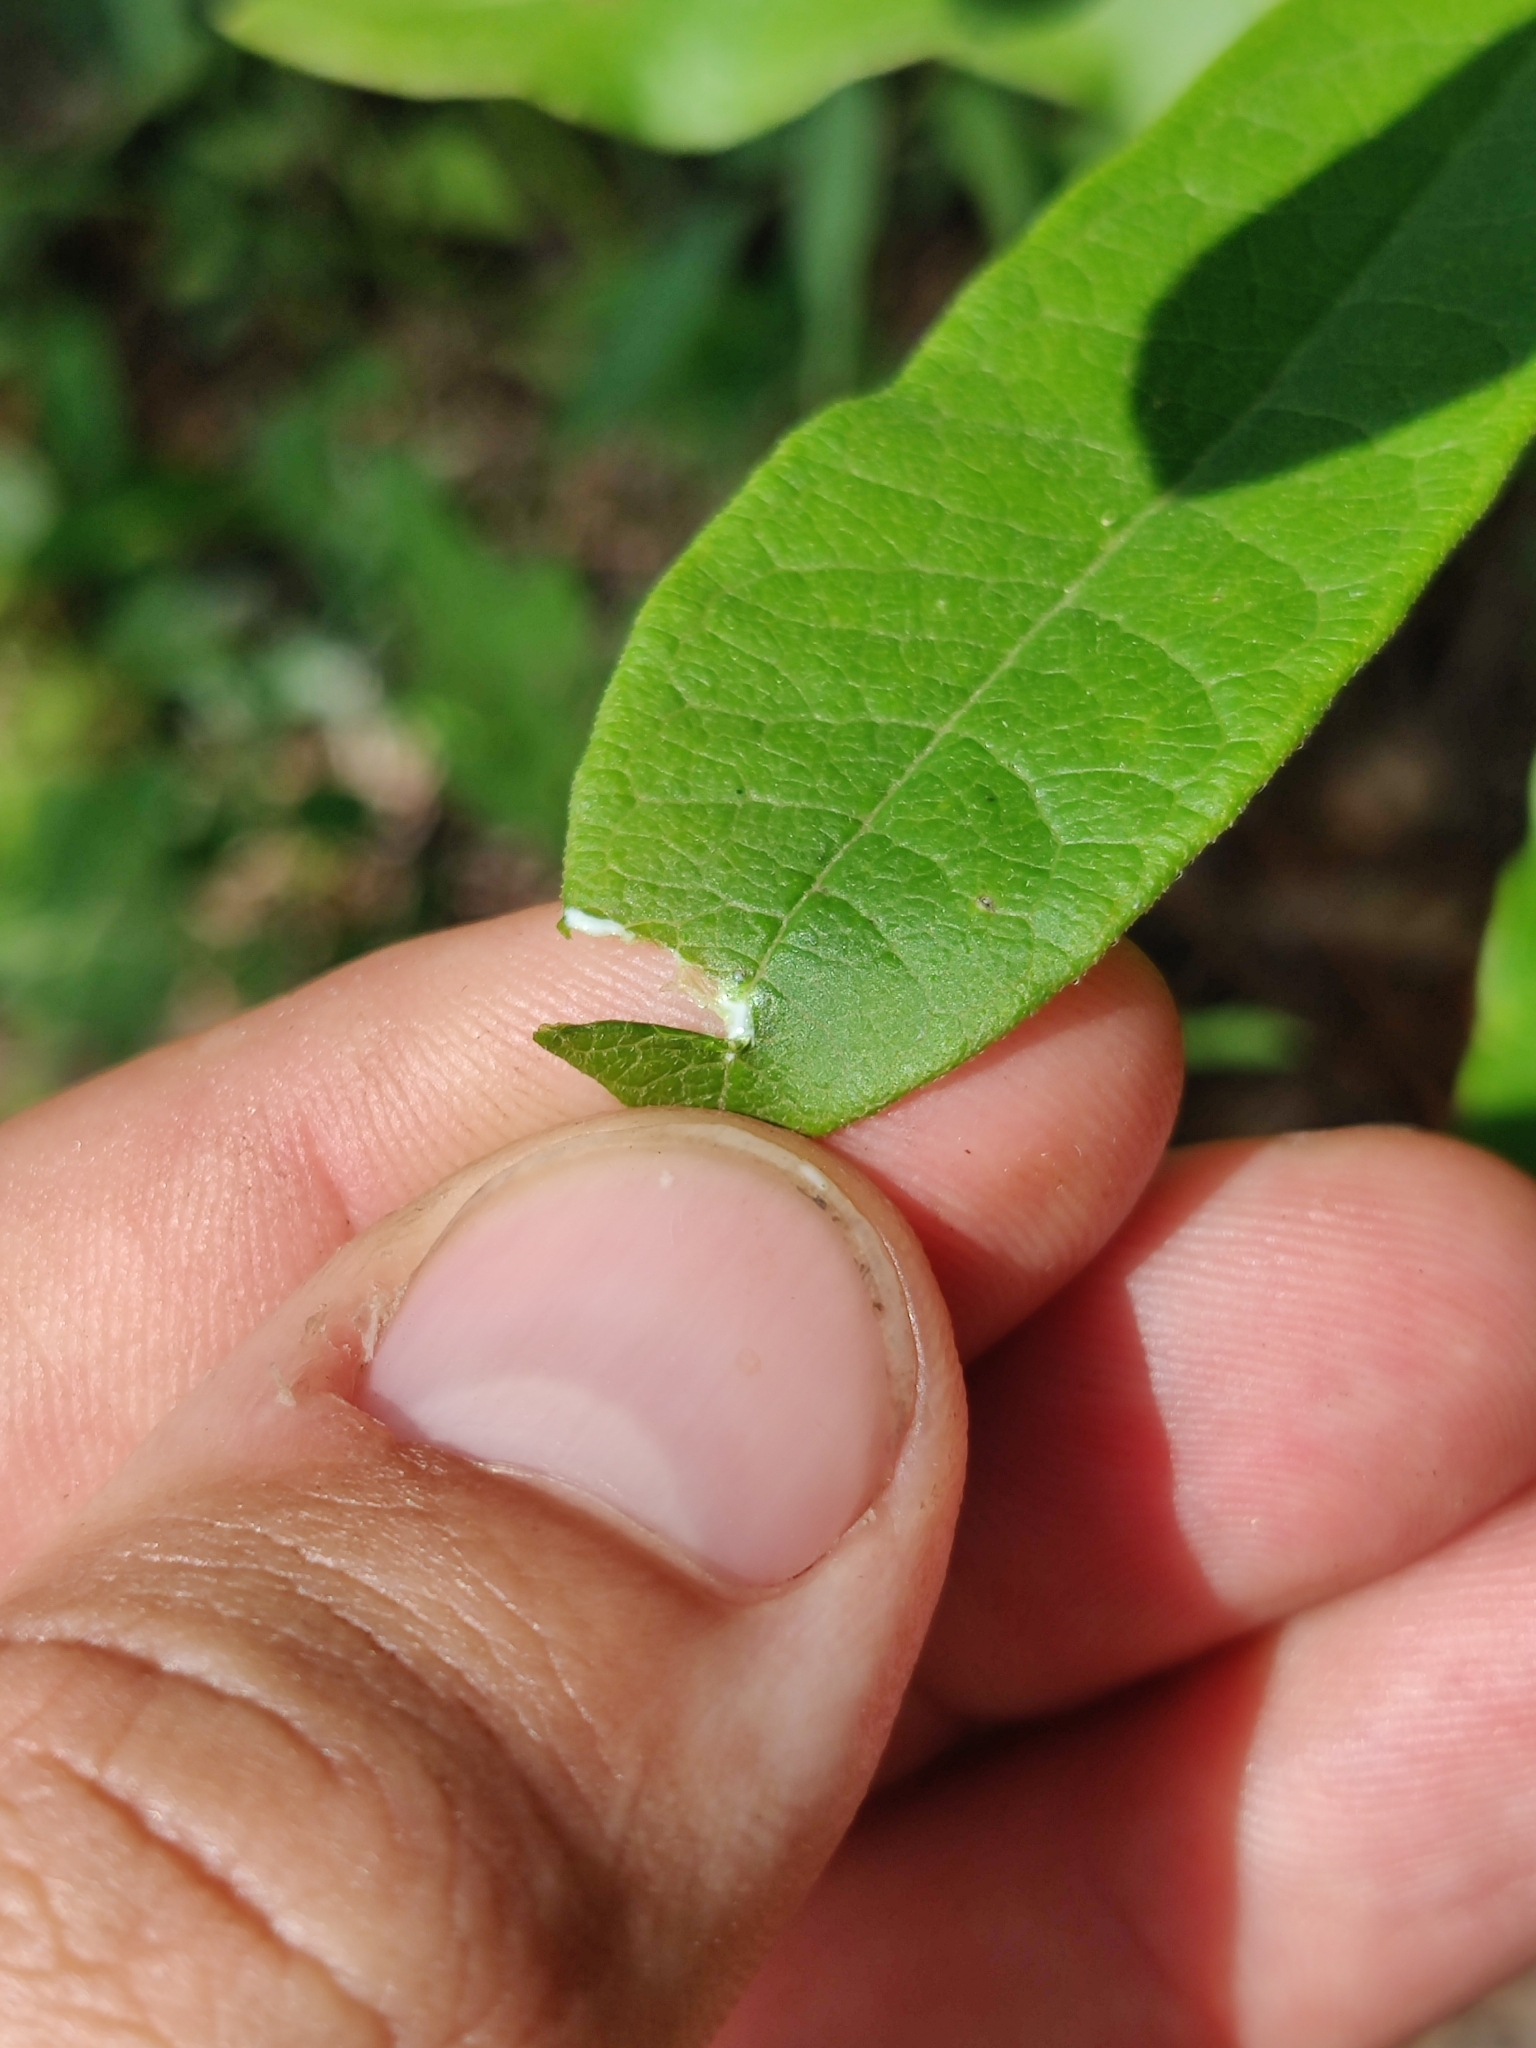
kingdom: Plantae
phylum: Tracheophyta
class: Magnoliopsida
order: Gentianales
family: Apocynaceae
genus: Asclepias
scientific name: Asclepias tomentosa
